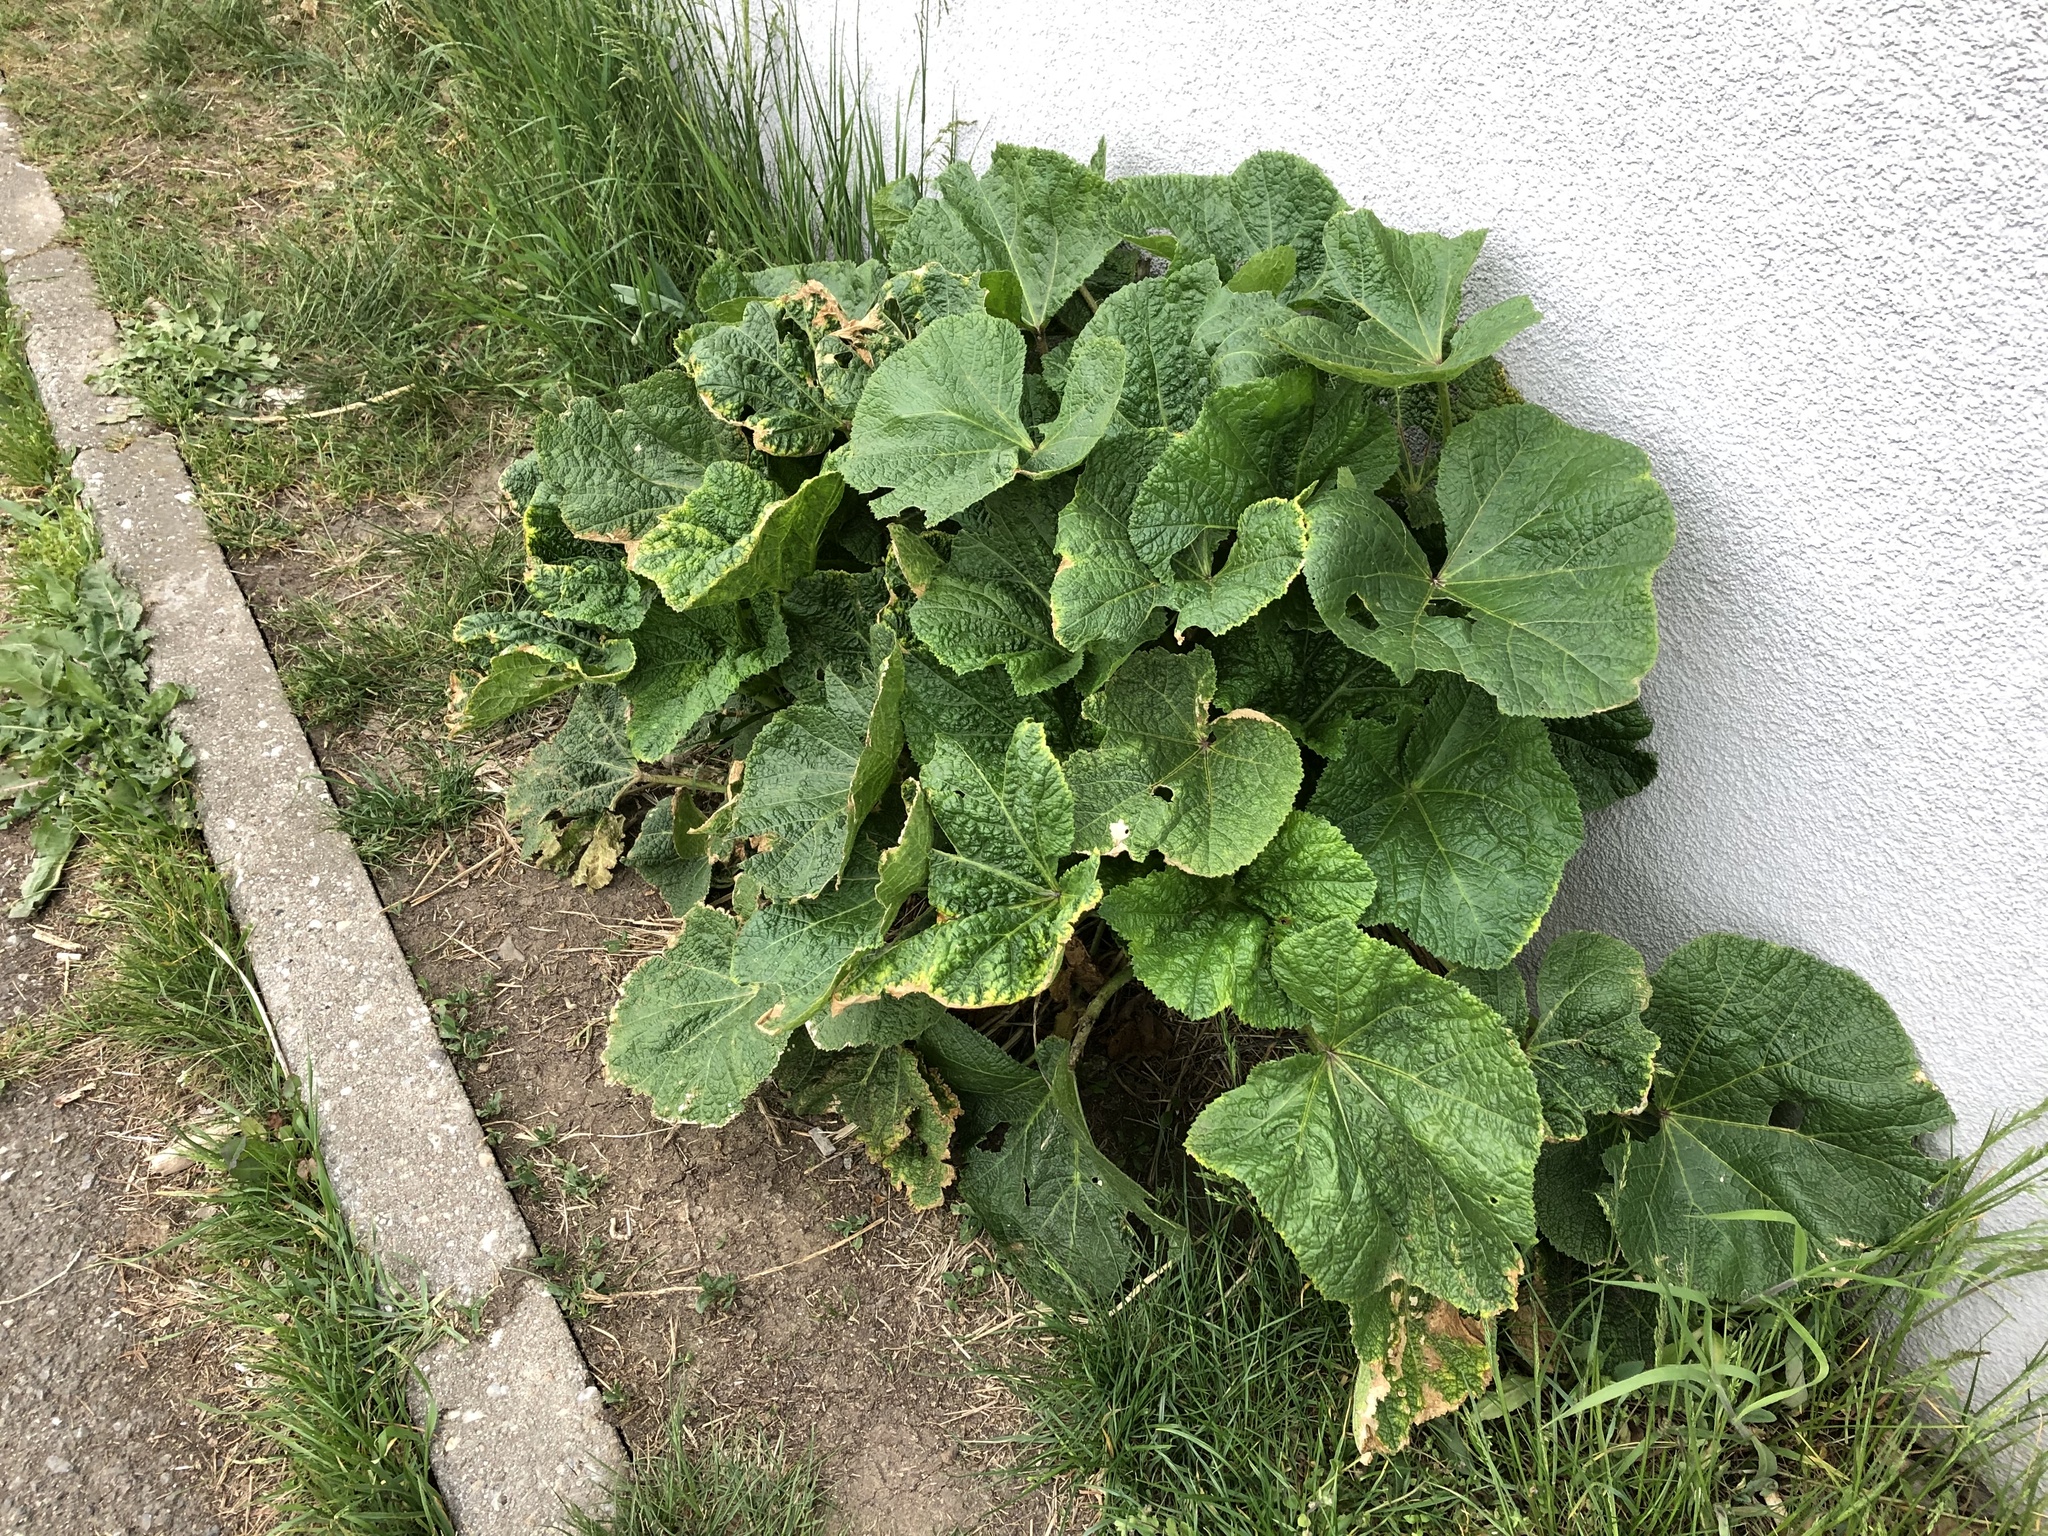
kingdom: Plantae
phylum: Tracheophyta
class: Magnoliopsida
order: Malvales
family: Malvaceae
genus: Alcea
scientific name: Alcea rosea
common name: Hollyhock
